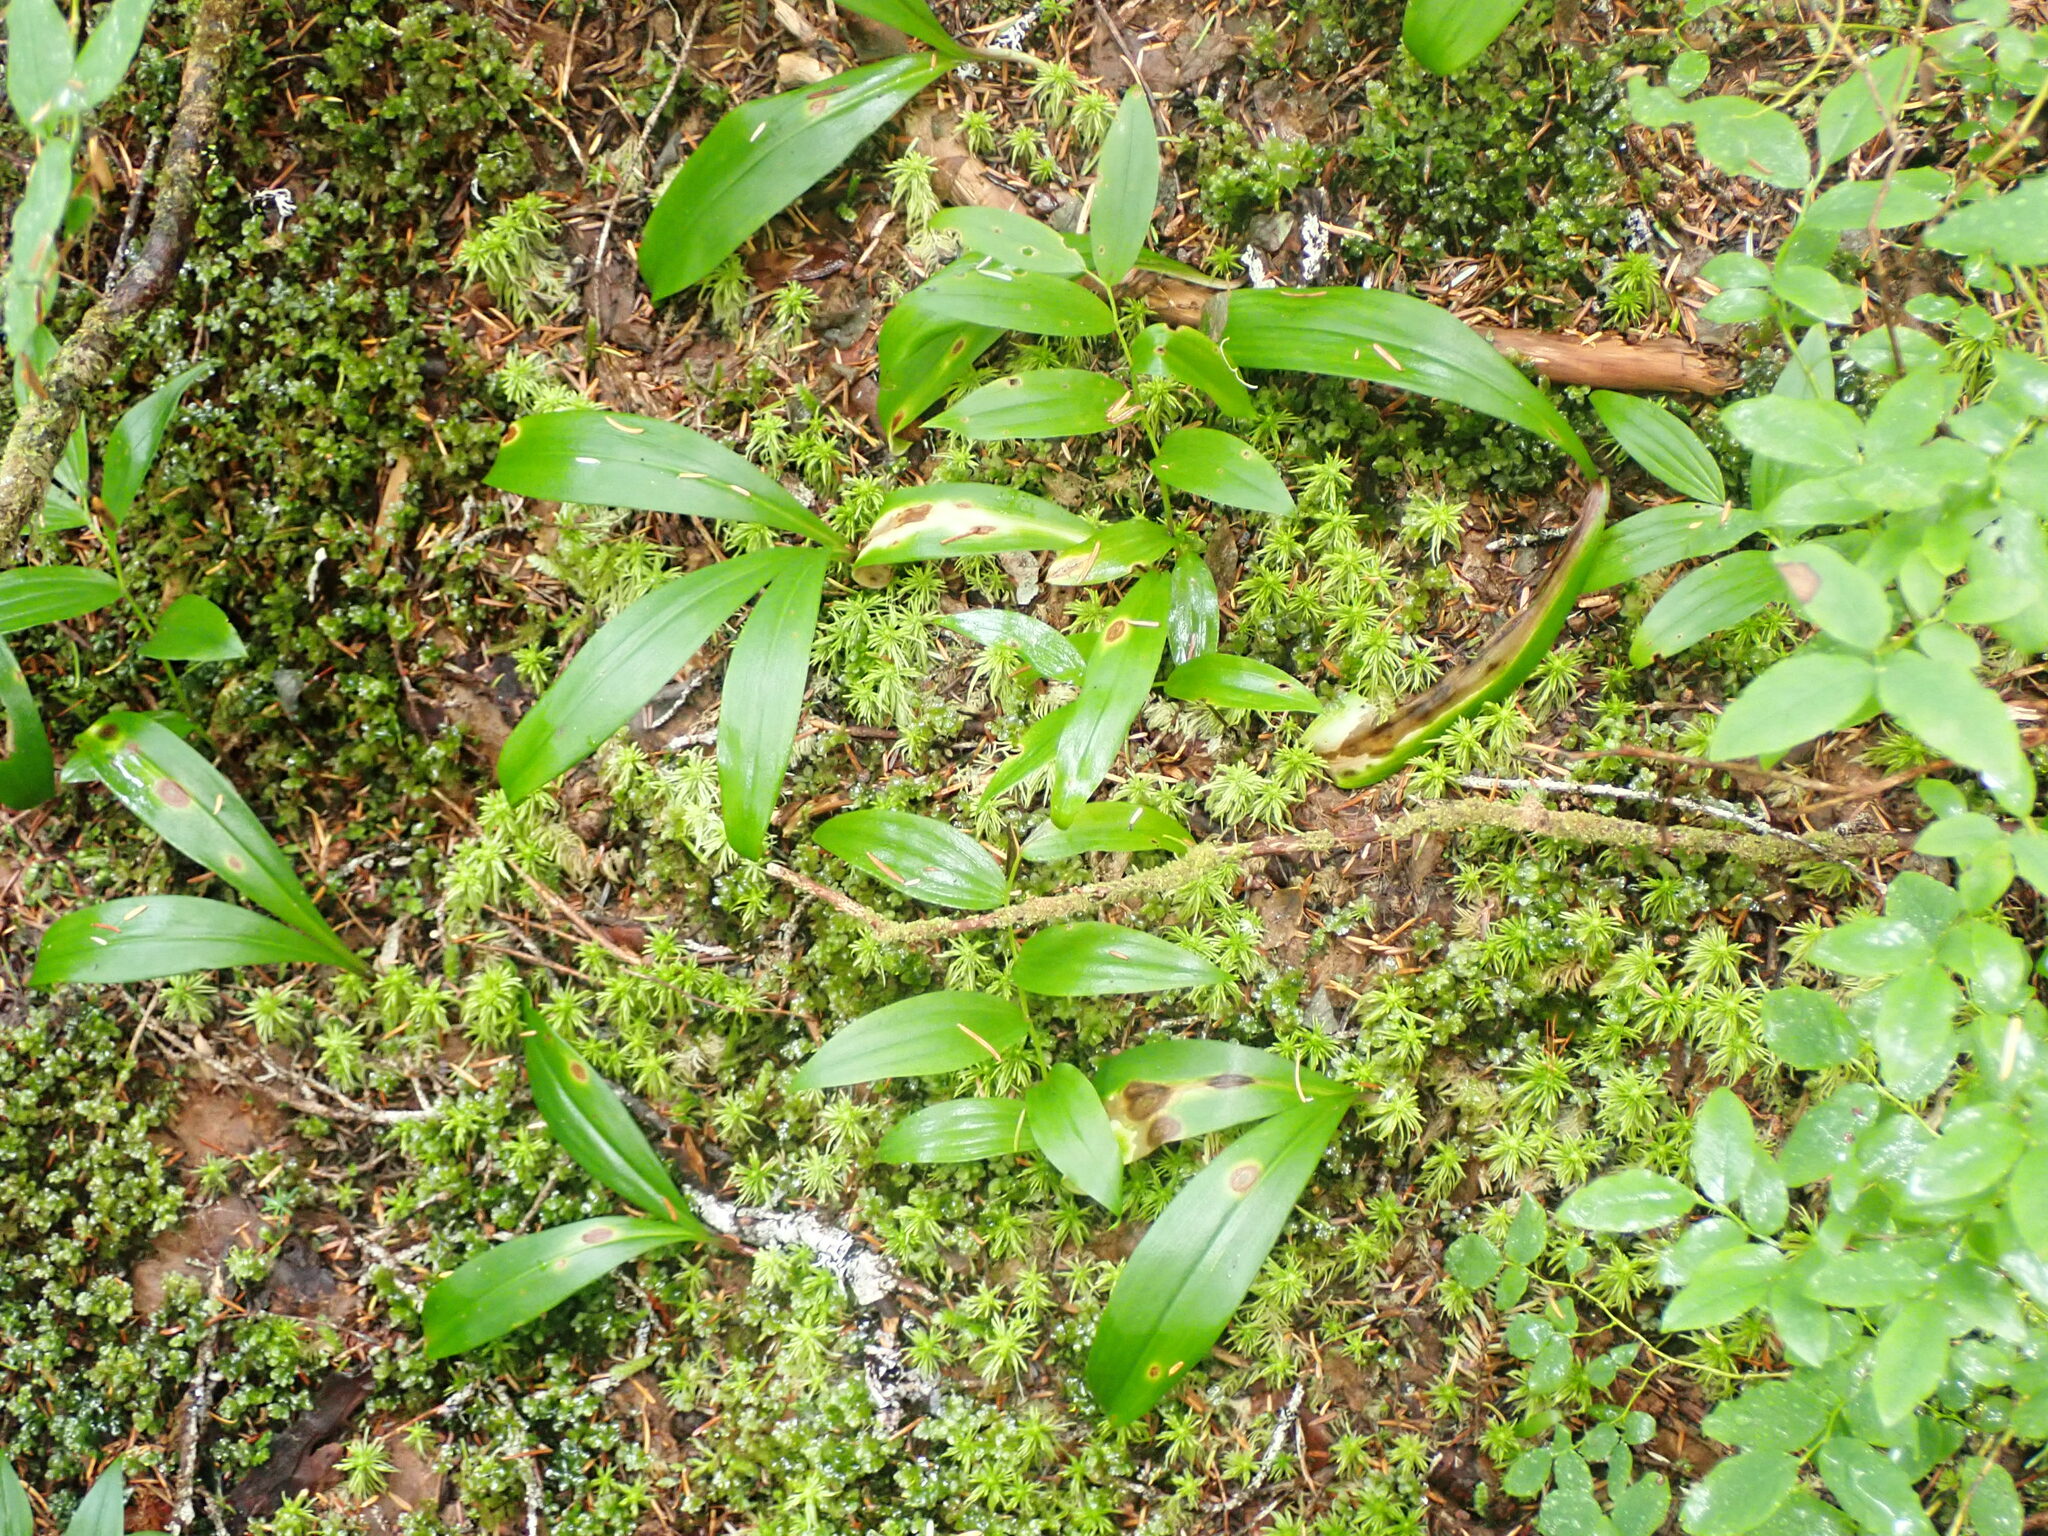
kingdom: Plantae
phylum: Tracheophyta
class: Liliopsida
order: Liliales
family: Liliaceae
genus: Clintonia
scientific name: Clintonia uniflora
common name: Queen's cup
